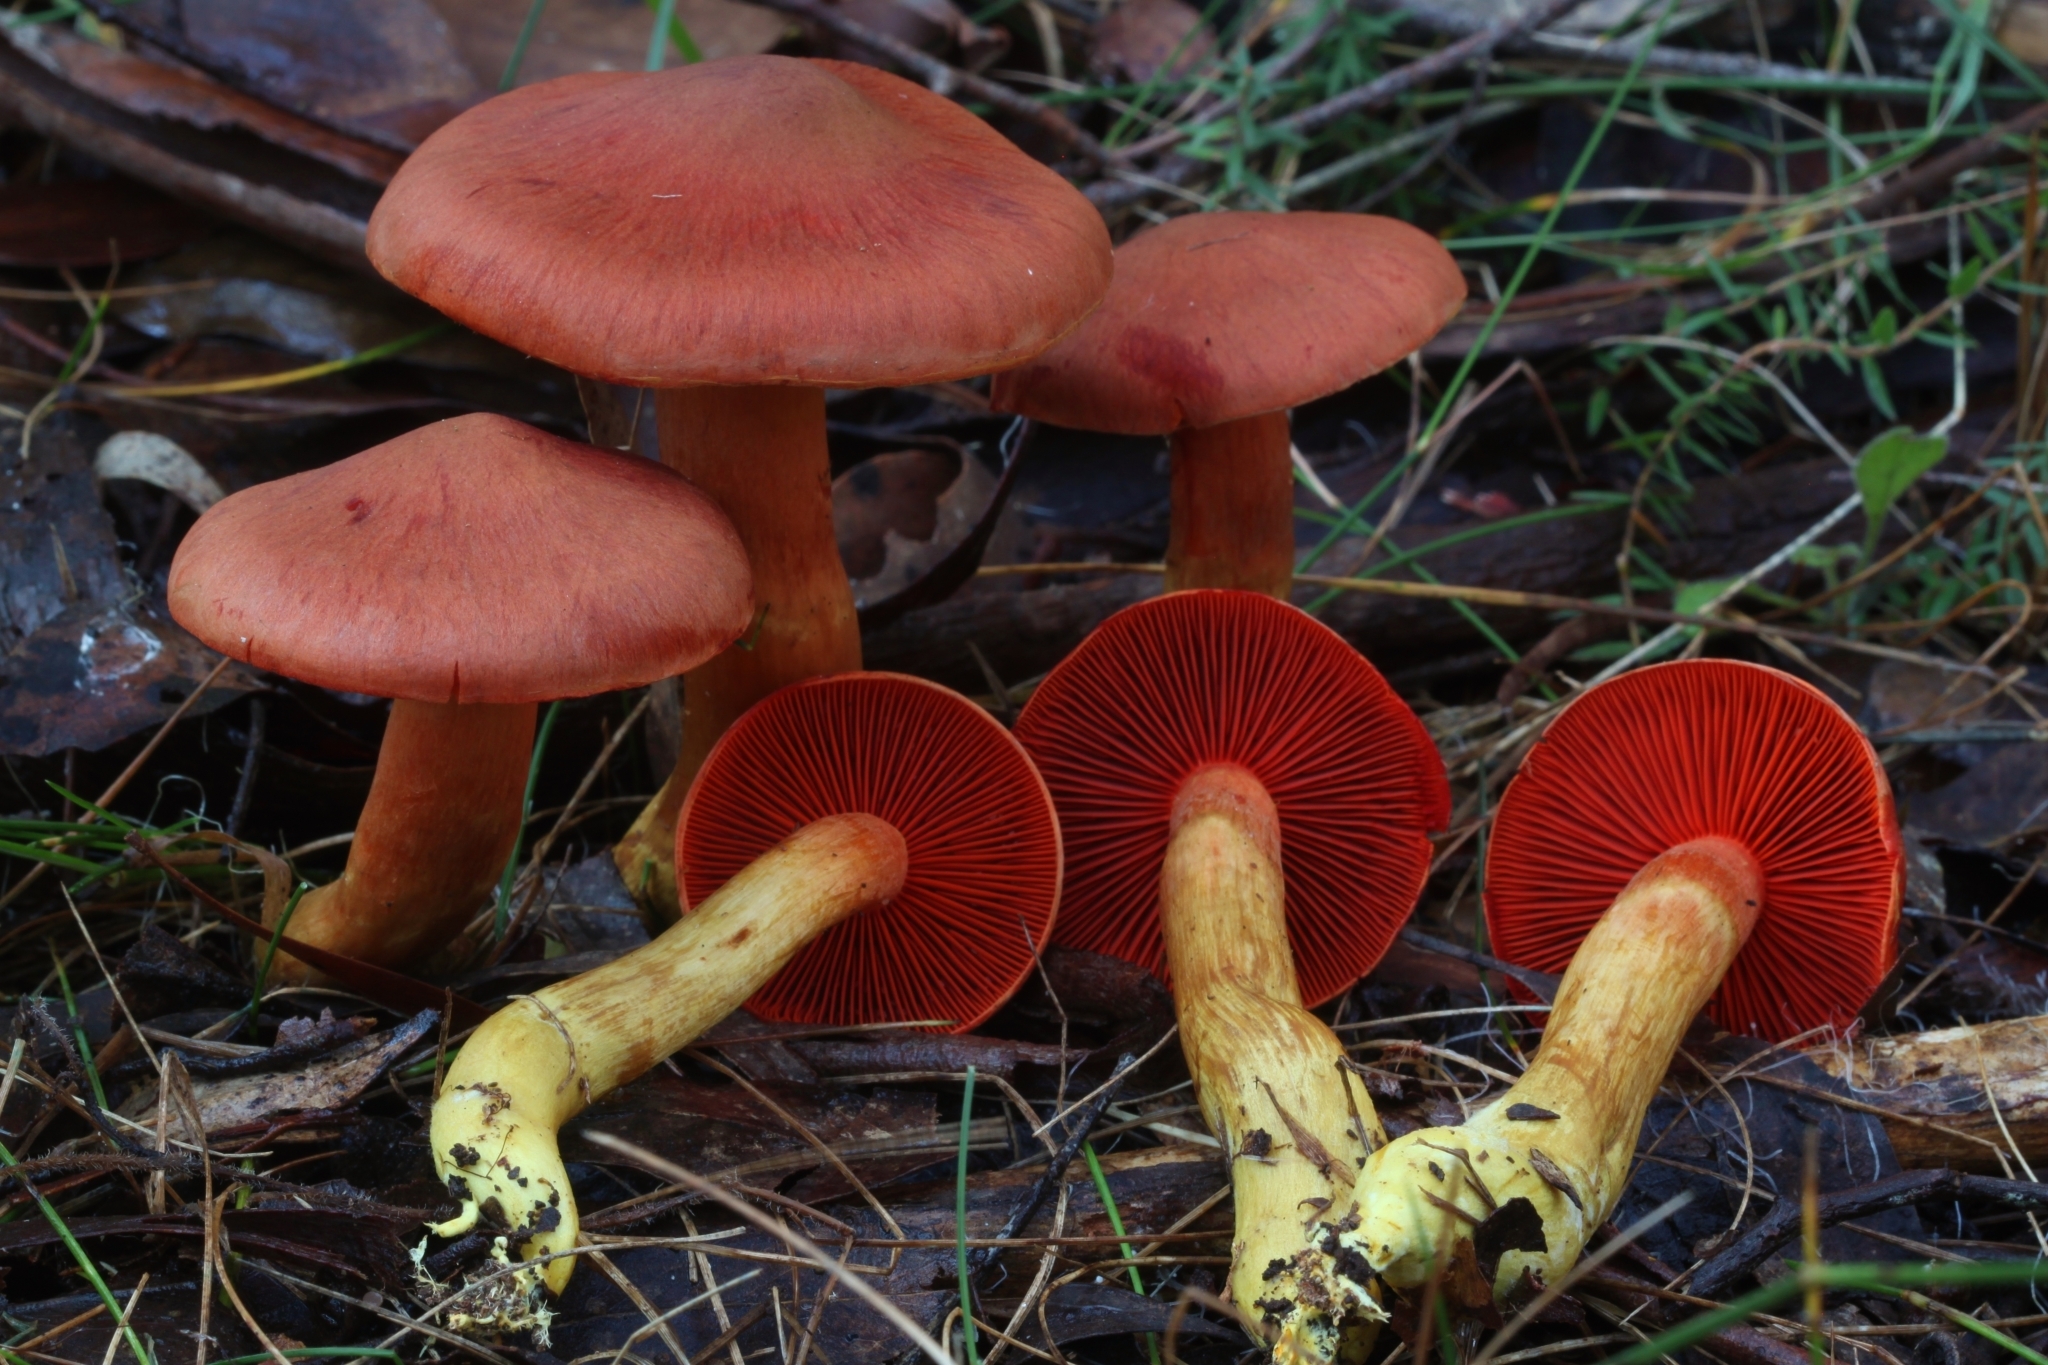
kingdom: Fungi
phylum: Basidiomycota
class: Agaricomycetes
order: Agaricales
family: Cortinariaceae
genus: Cortinarius
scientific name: Cortinarius persplendidus
